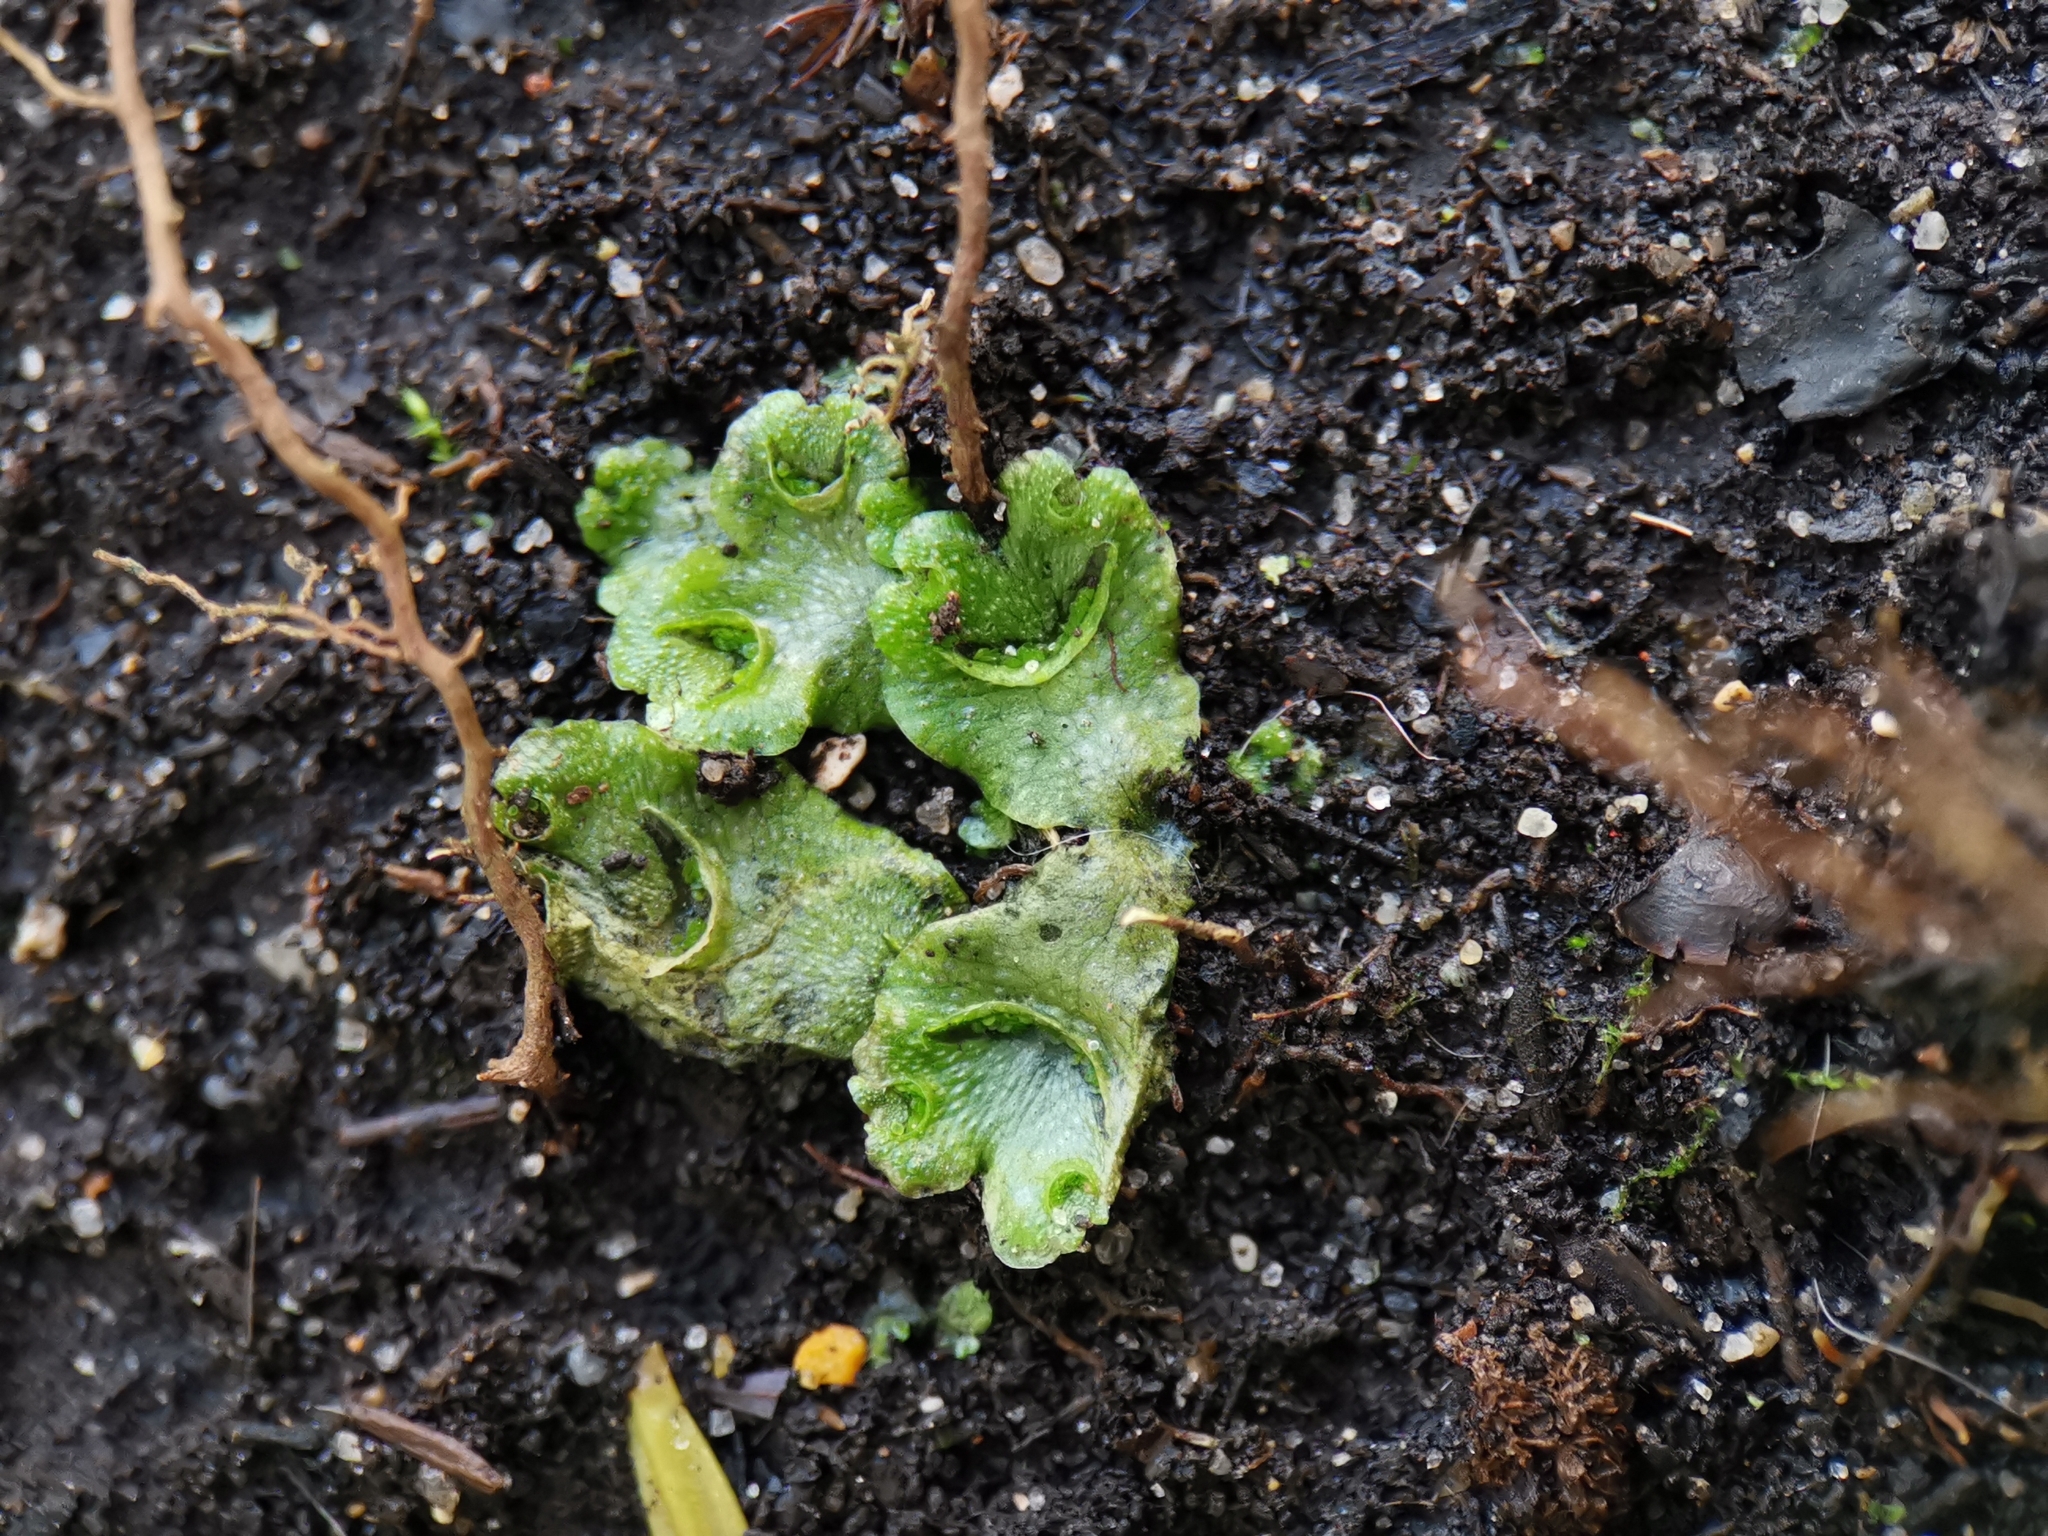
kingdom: Plantae
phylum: Marchantiophyta
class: Marchantiopsida
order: Lunulariales
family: Lunulariaceae
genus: Lunularia
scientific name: Lunularia cruciata
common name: Crescent-cup liverwort
